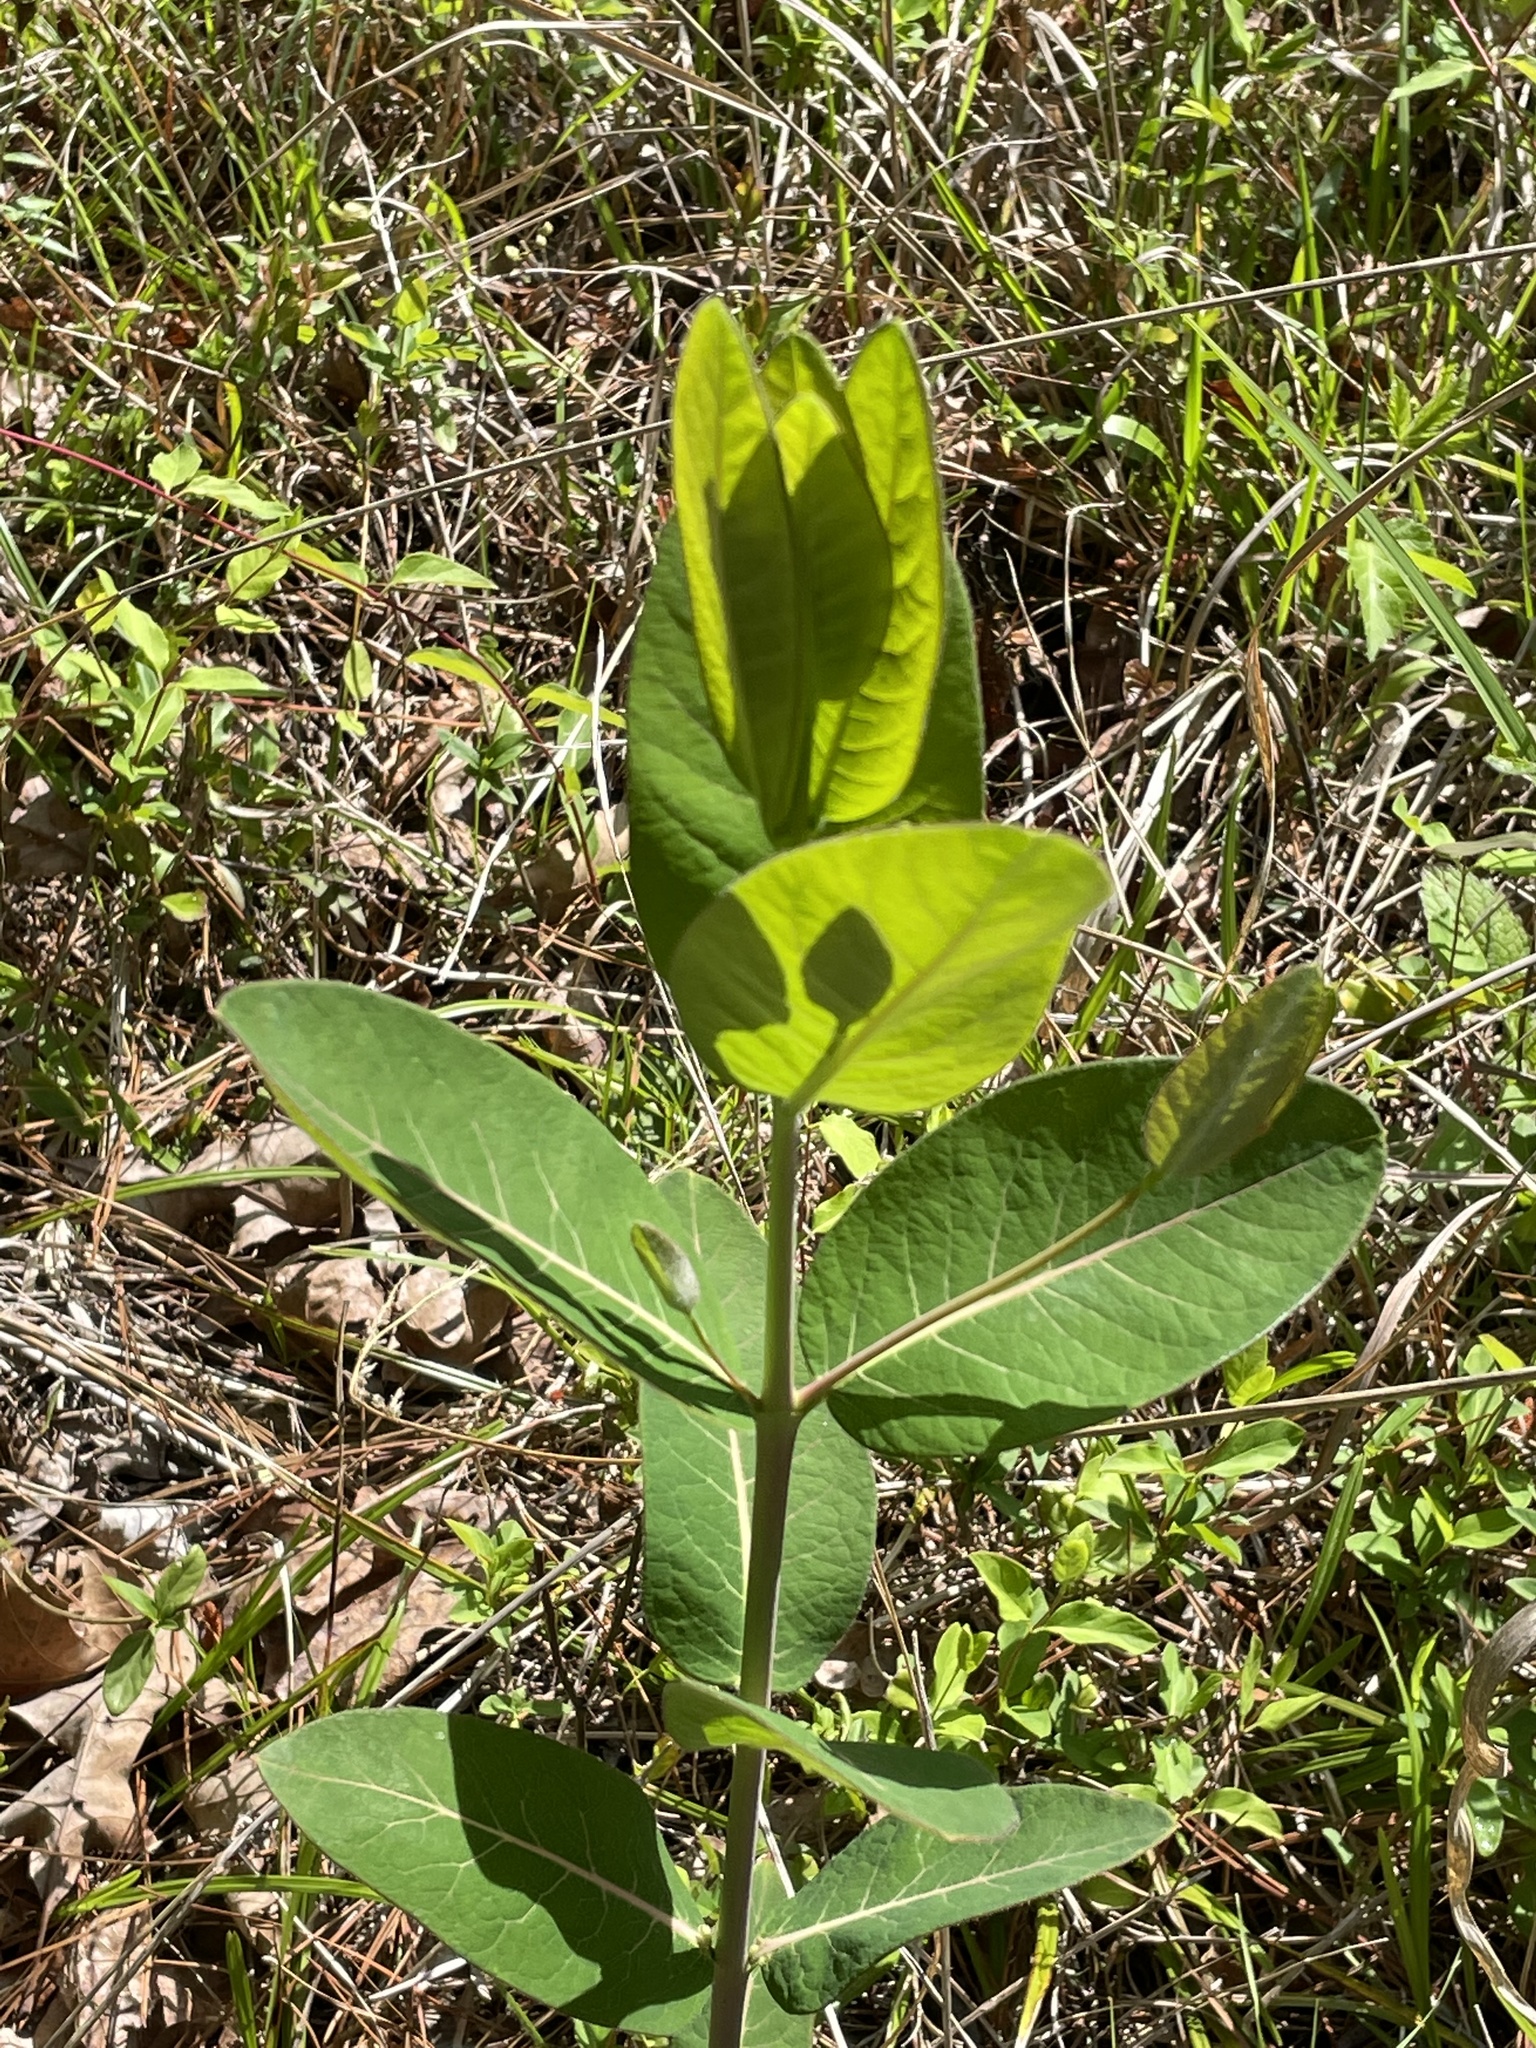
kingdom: Plantae
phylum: Tracheophyta
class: Magnoliopsida
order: Gentianales
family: Apocynaceae
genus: Apocynum
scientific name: Apocynum cannabinum
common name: Hemp dogbane
